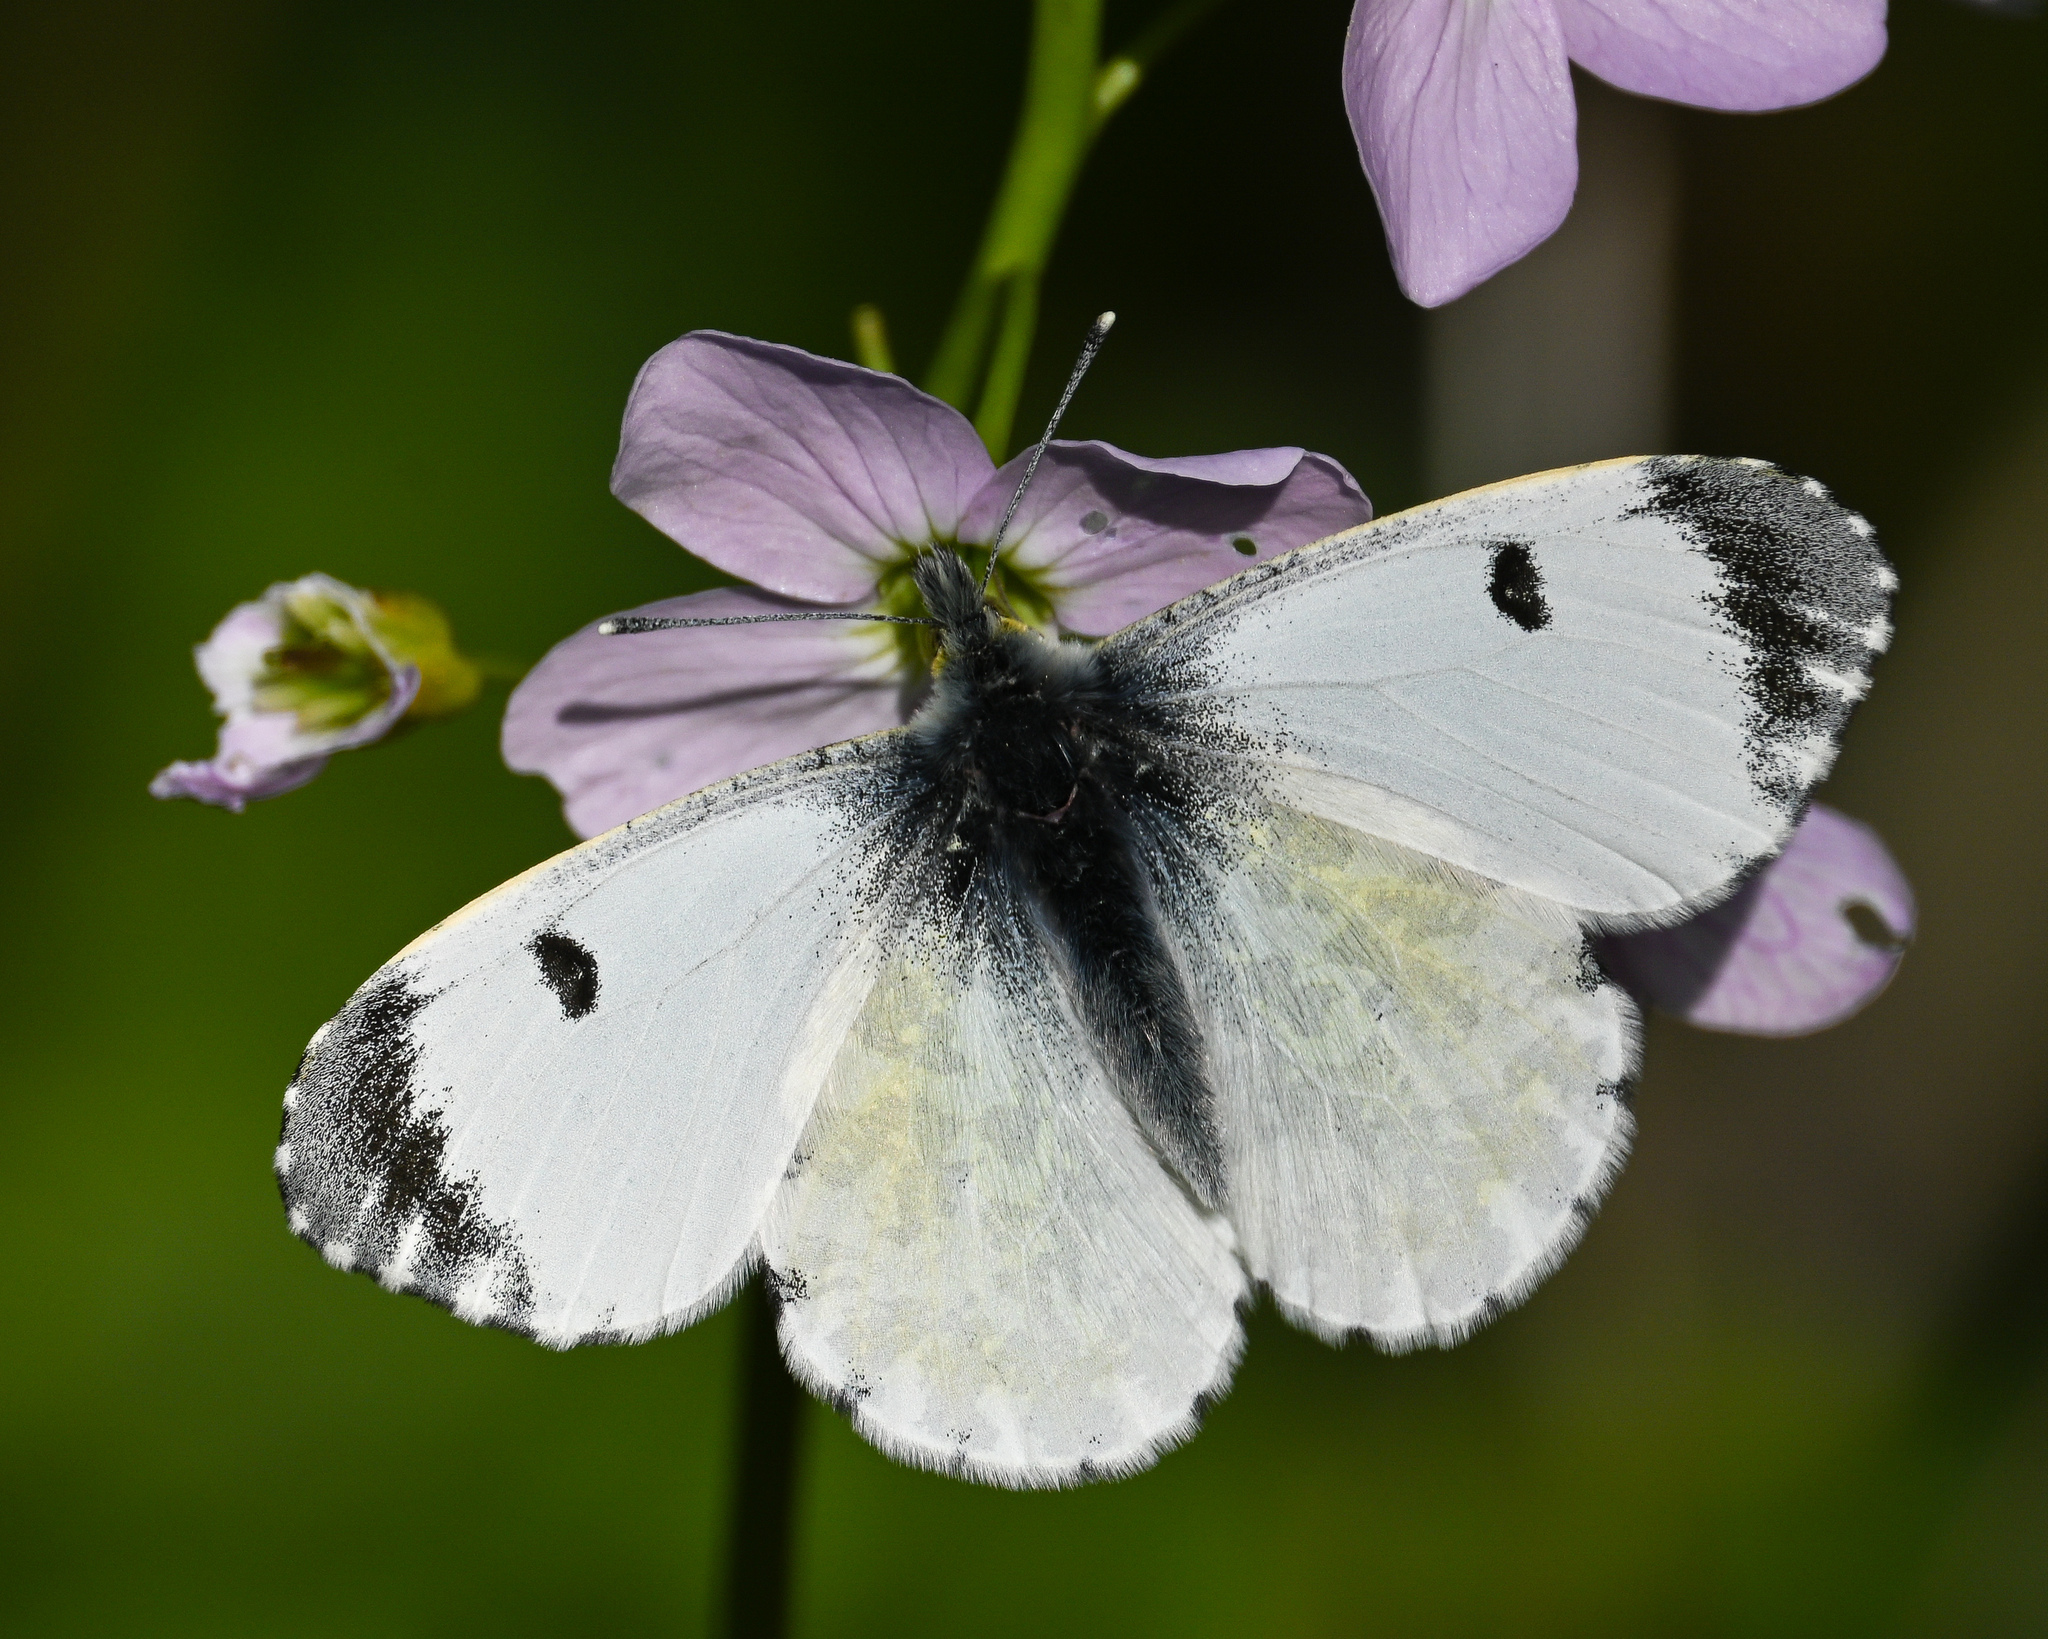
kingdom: Animalia
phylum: Arthropoda
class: Insecta
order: Lepidoptera
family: Pieridae
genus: Anthocharis
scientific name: Anthocharis cardamines
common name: Orange-tip
